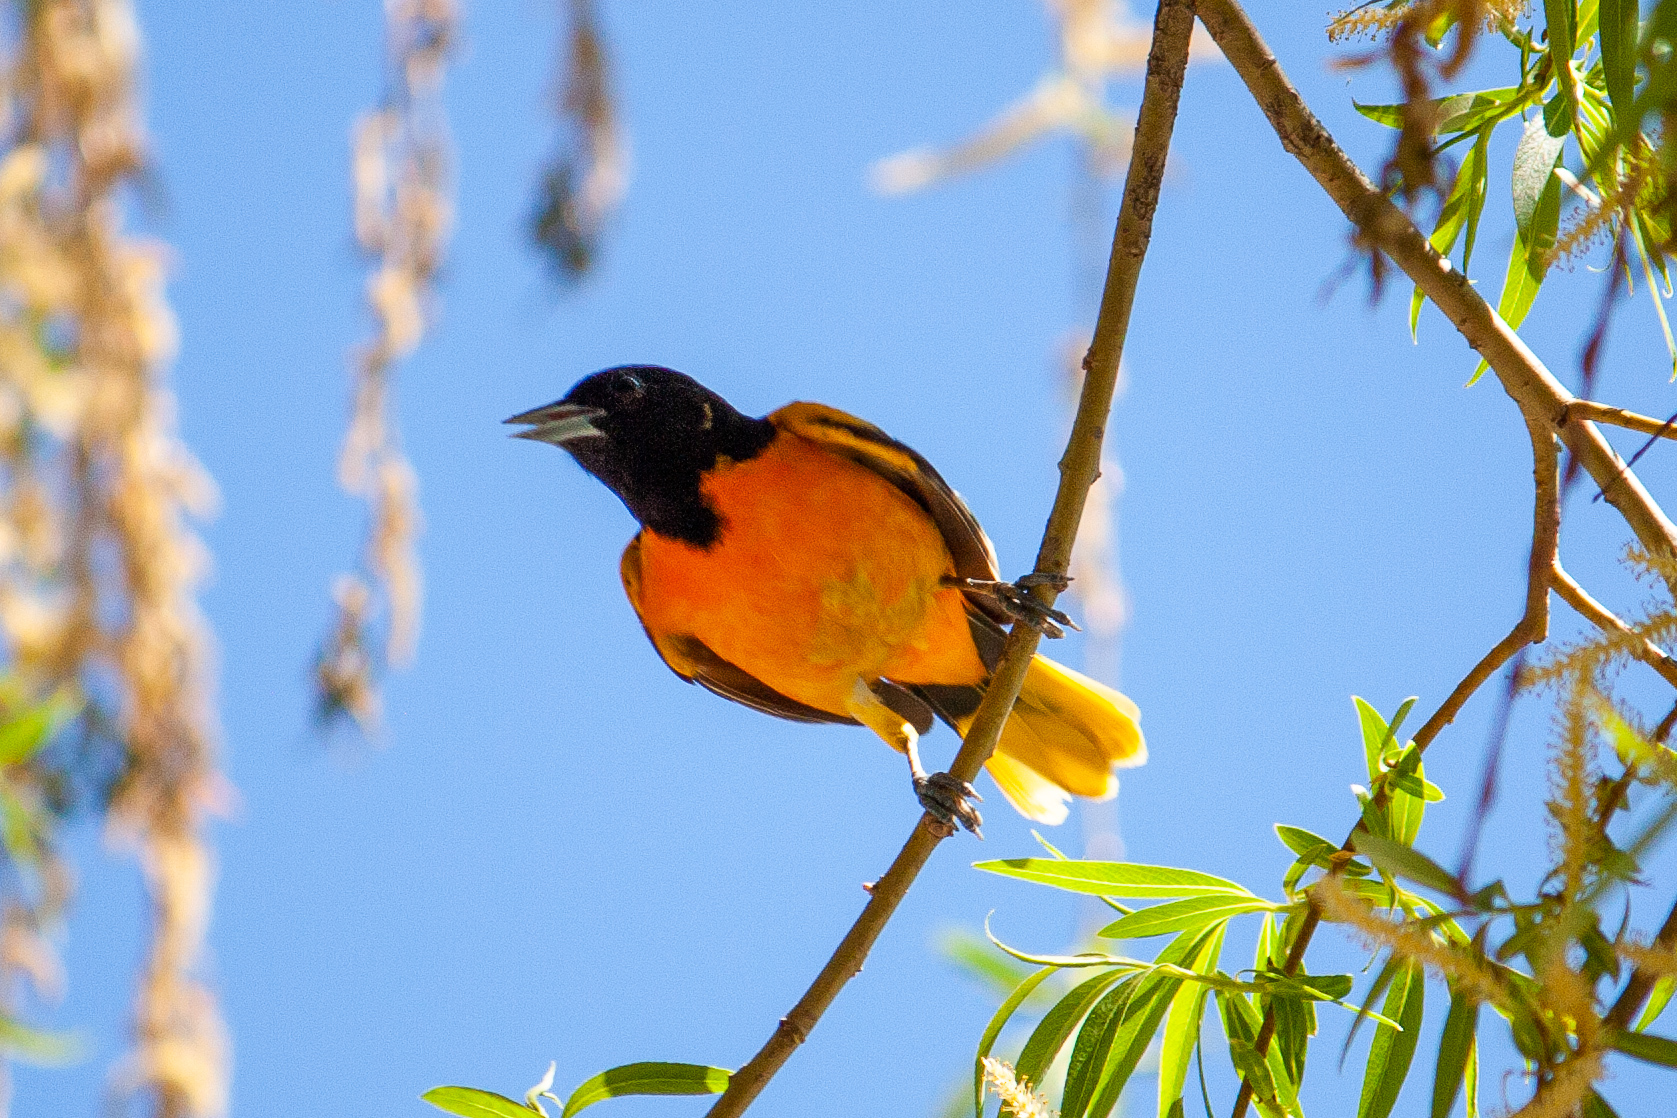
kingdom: Animalia
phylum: Chordata
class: Aves
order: Passeriformes
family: Icteridae
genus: Icterus
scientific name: Icterus galbula
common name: Baltimore oriole
